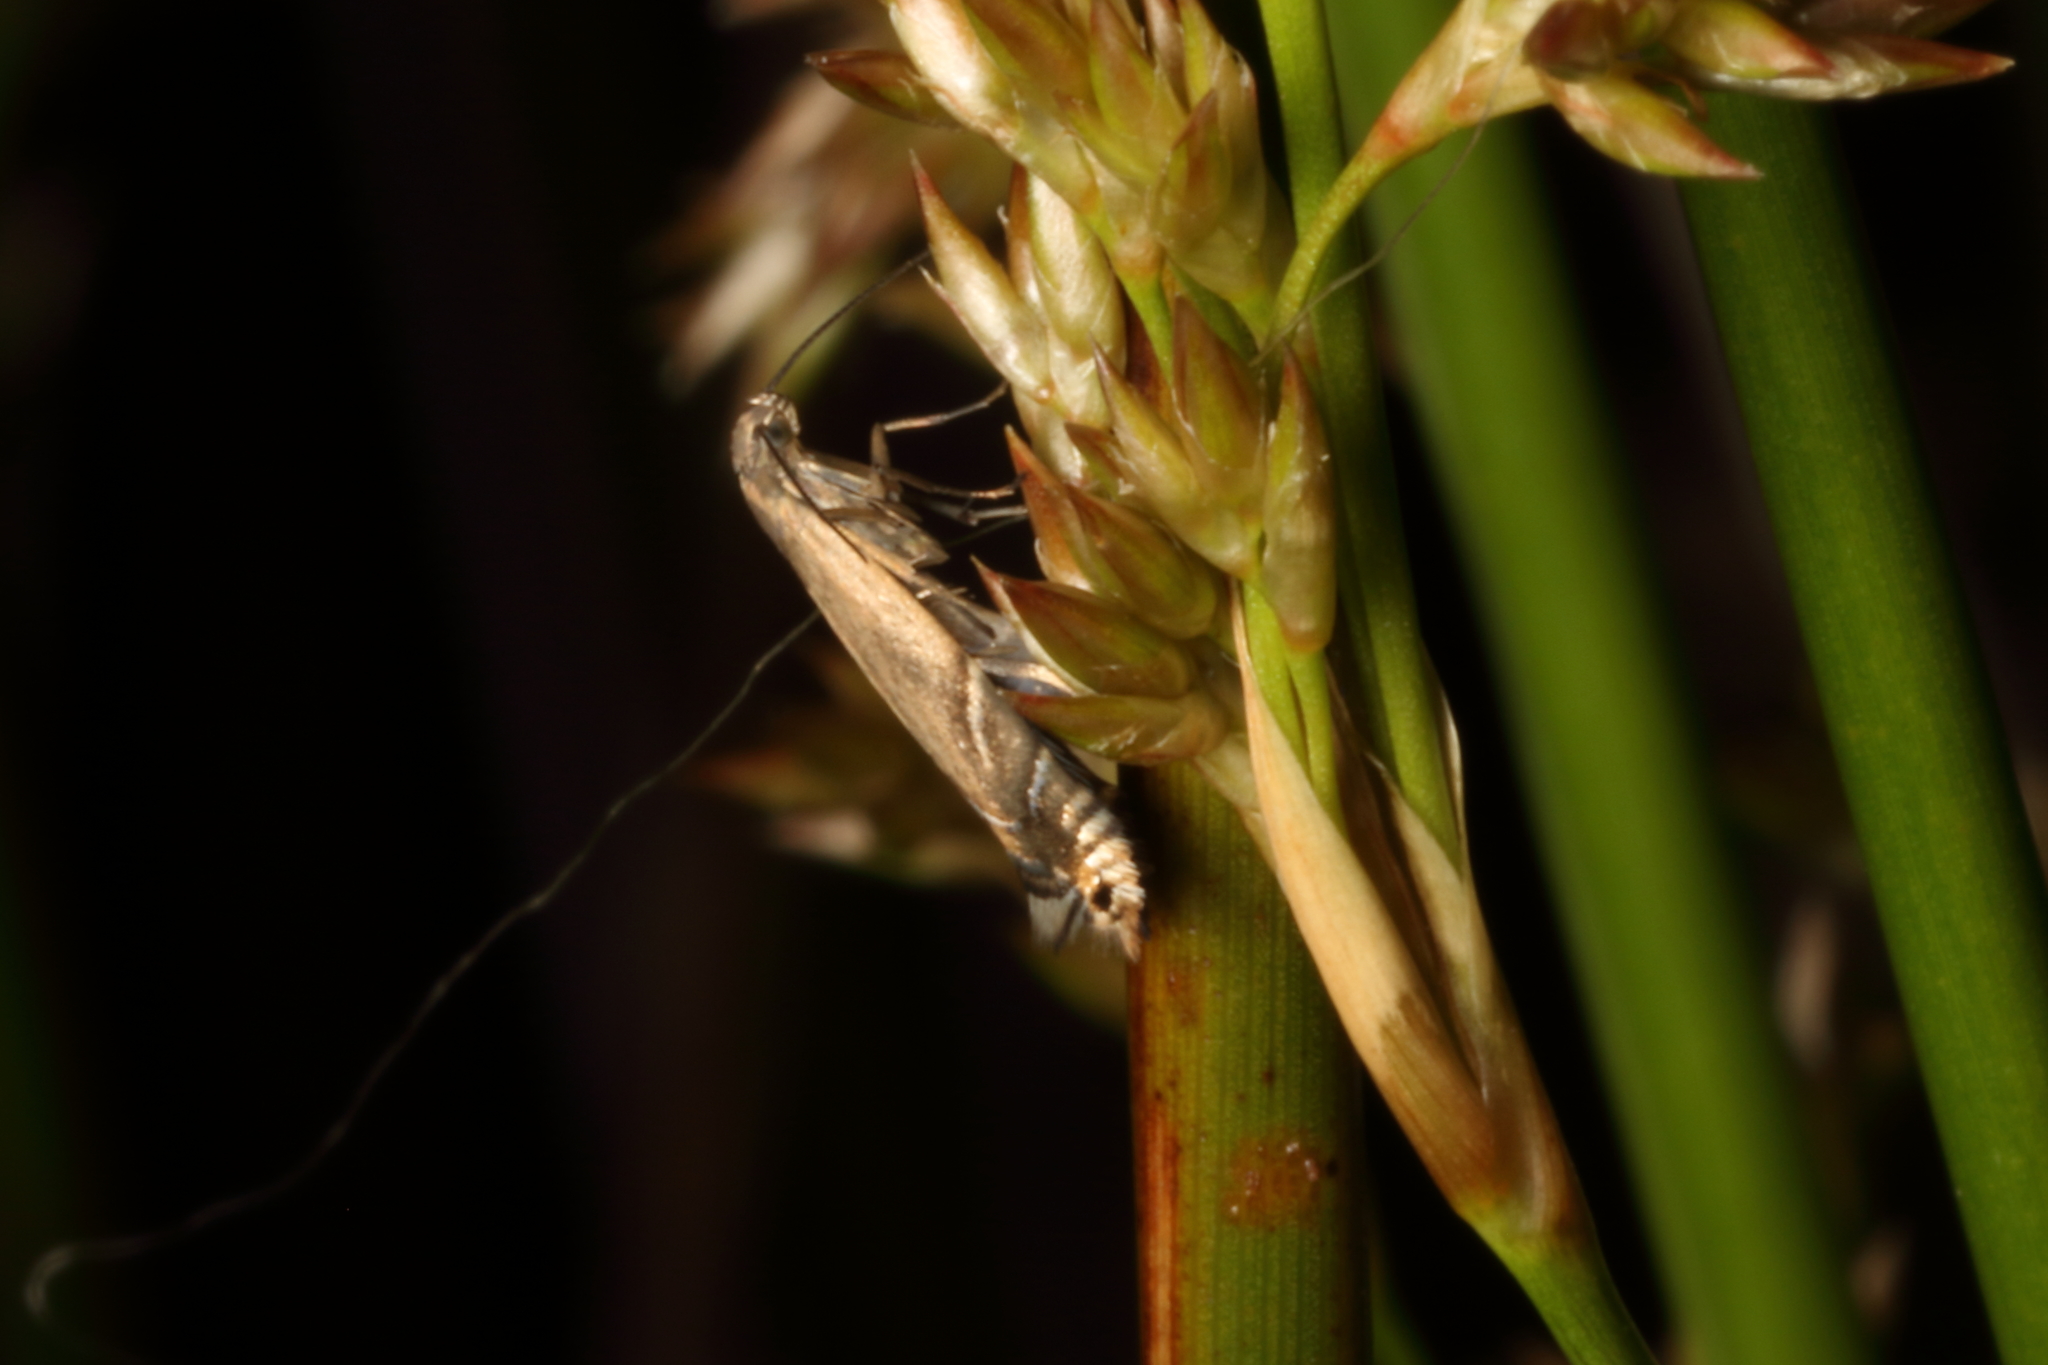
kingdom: Animalia
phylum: Arthropoda
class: Insecta
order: Lepidoptera
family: Glyphipterigidae
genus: Glyphipterix
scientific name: Glyphipterix iocheaera
